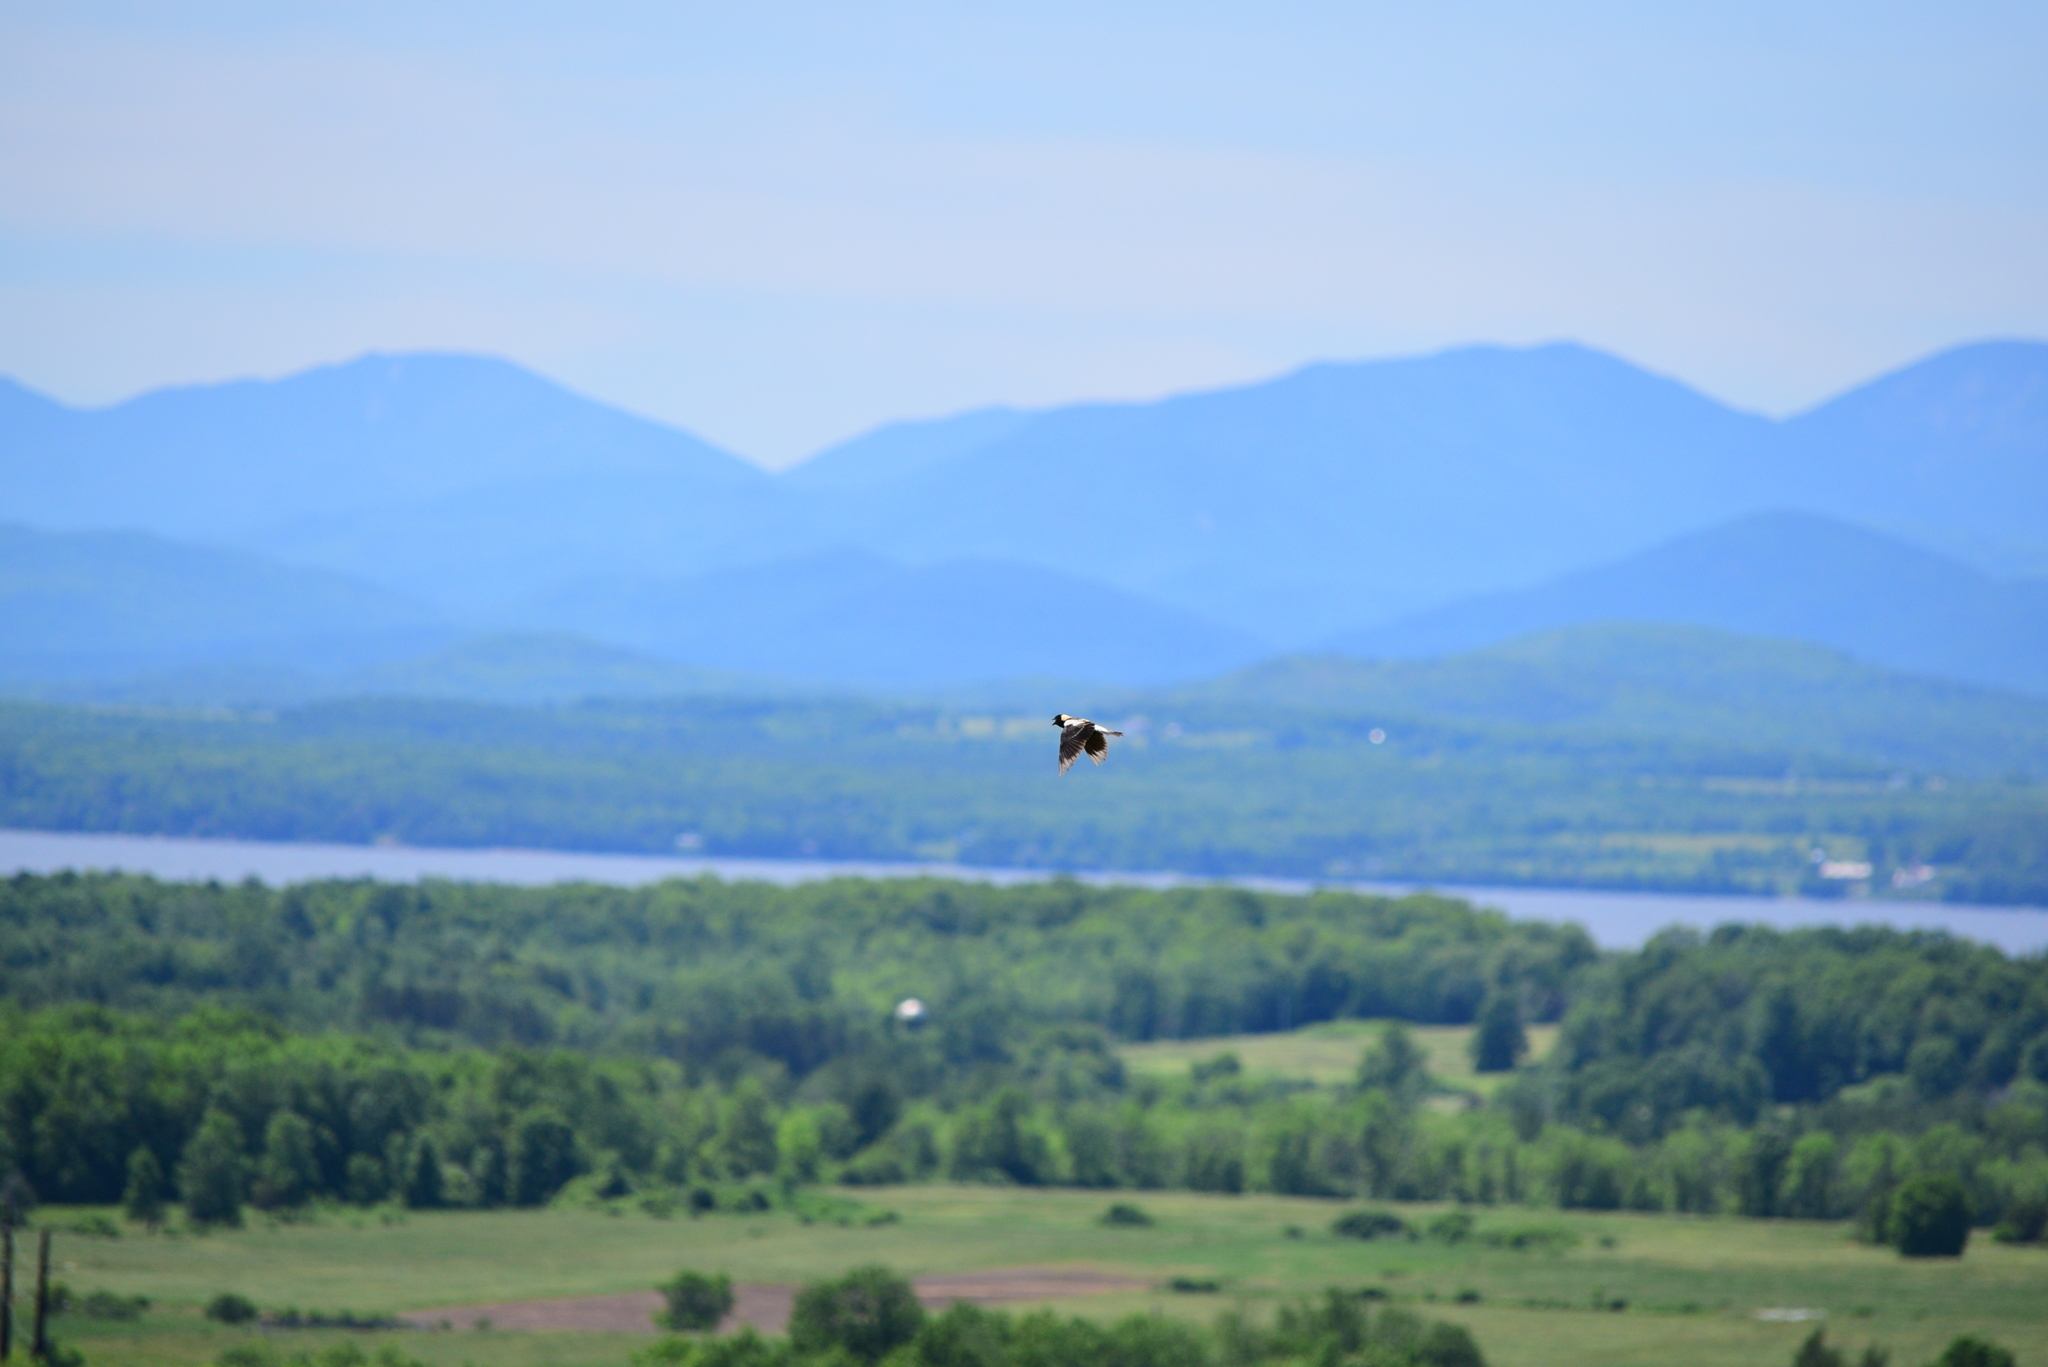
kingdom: Animalia
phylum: Chordata
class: Aves
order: Passeriformes
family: Icteridae
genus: Dolichonyx
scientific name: Dolichonyx oryzivorus
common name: Bobolink
